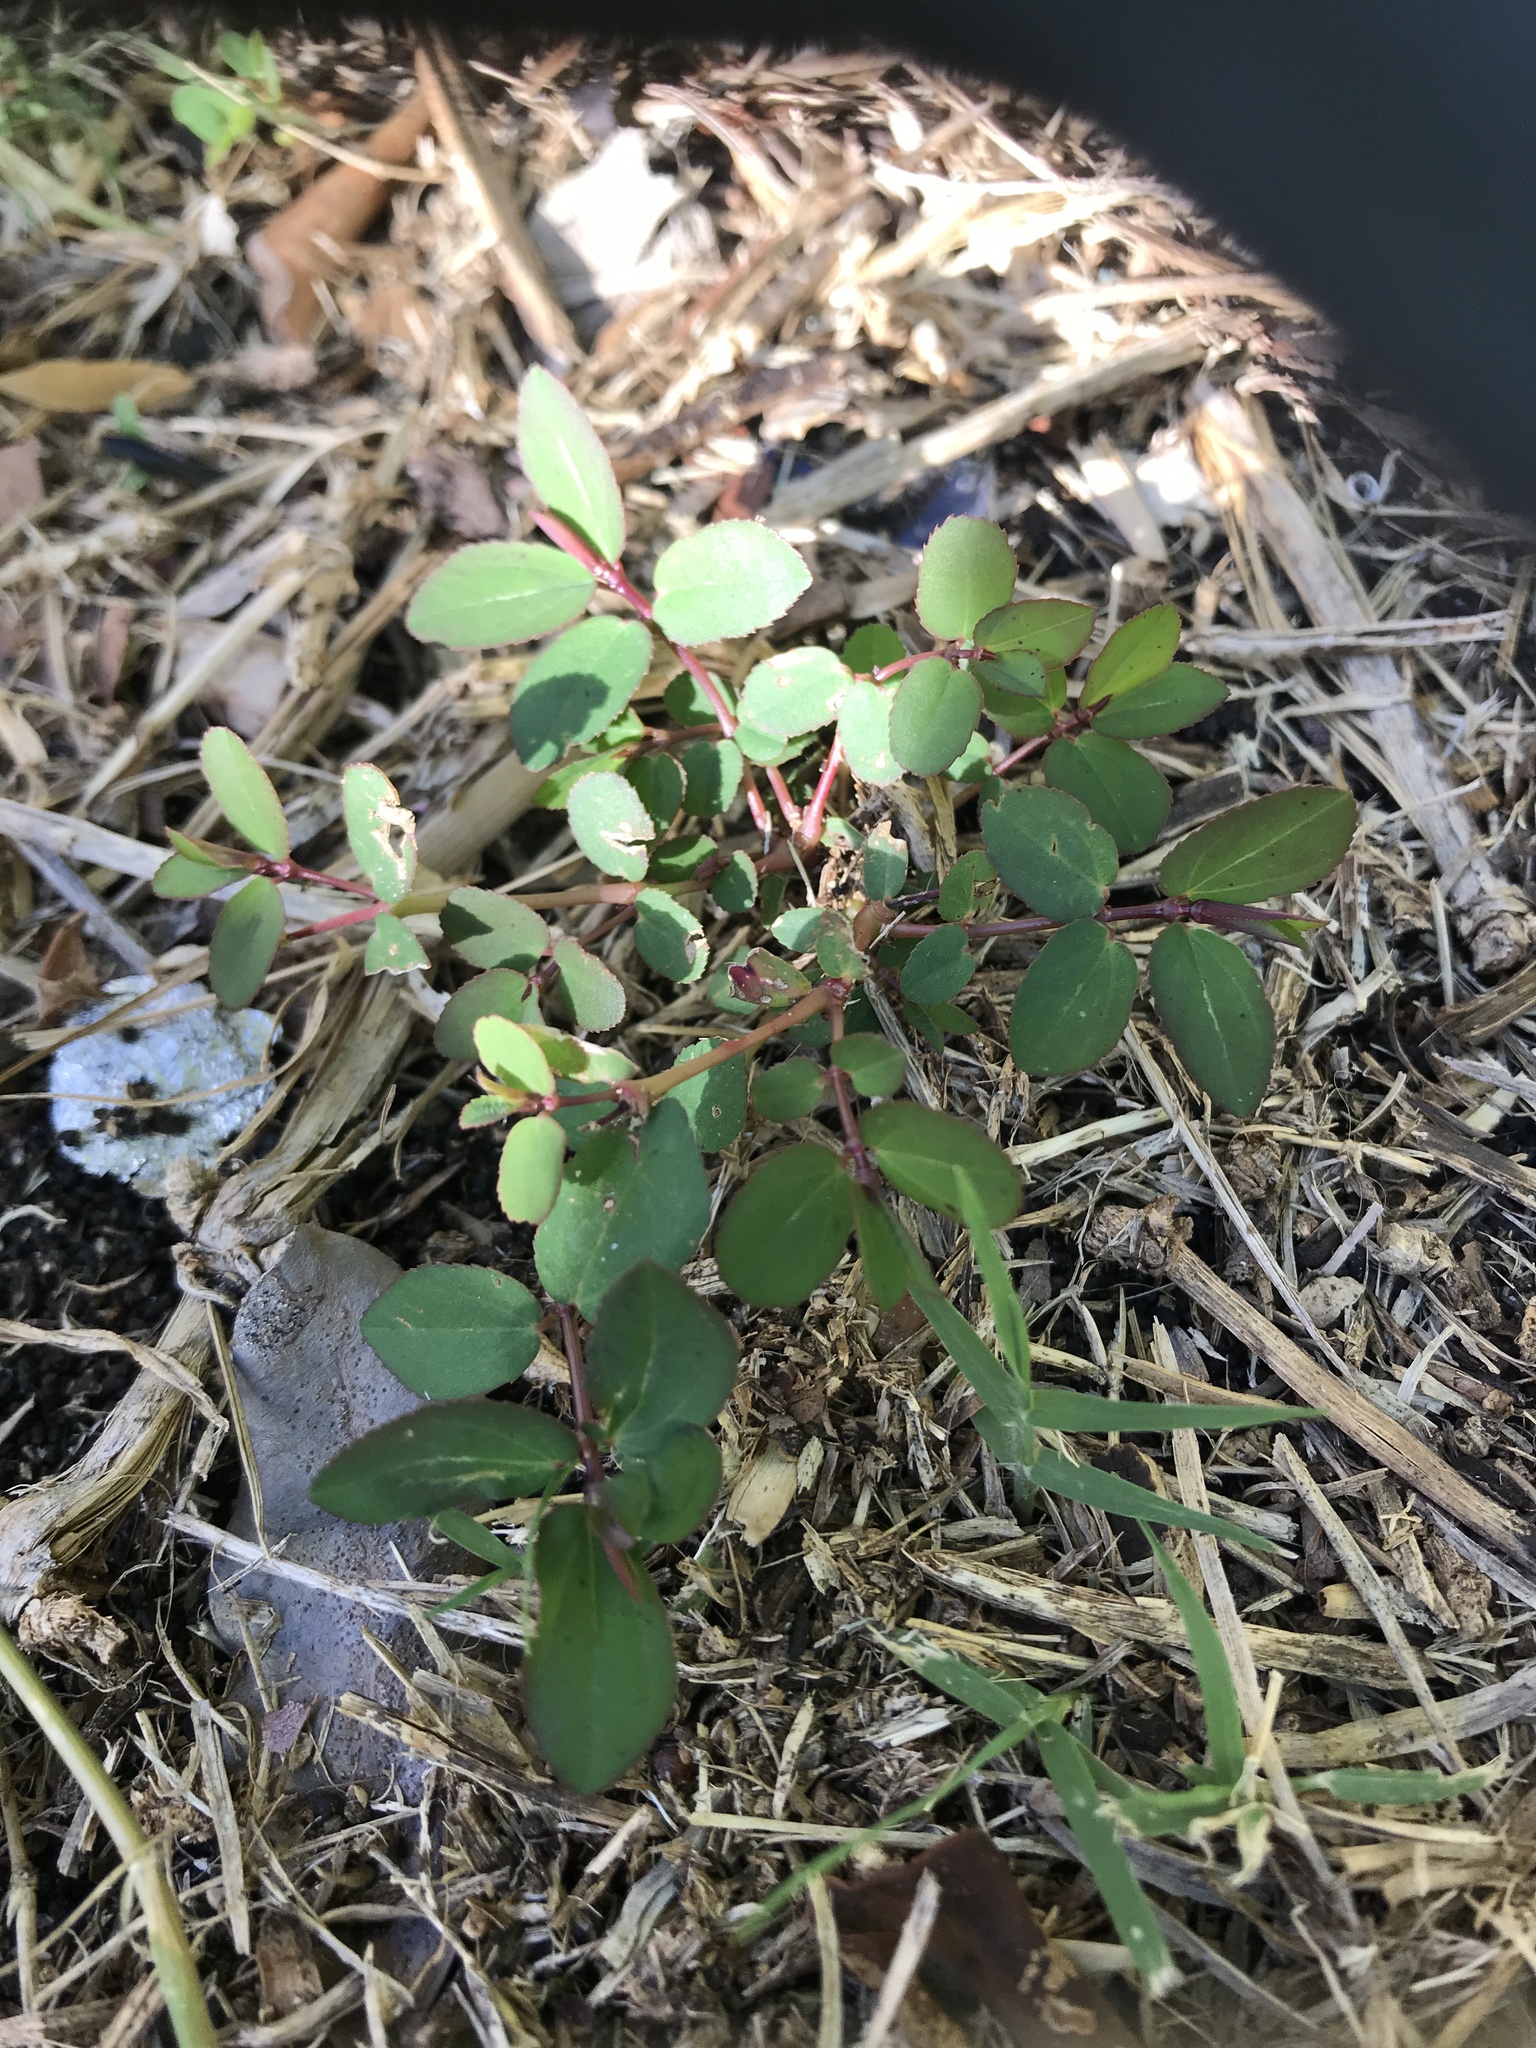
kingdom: Plantae
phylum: Tracheophyta
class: Magnoliopsida
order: Malpighiales
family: Euphorbiaceae
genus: Euphorbia
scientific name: Euphorbia hyssopifolia
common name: Hyssopleaf sandmat
